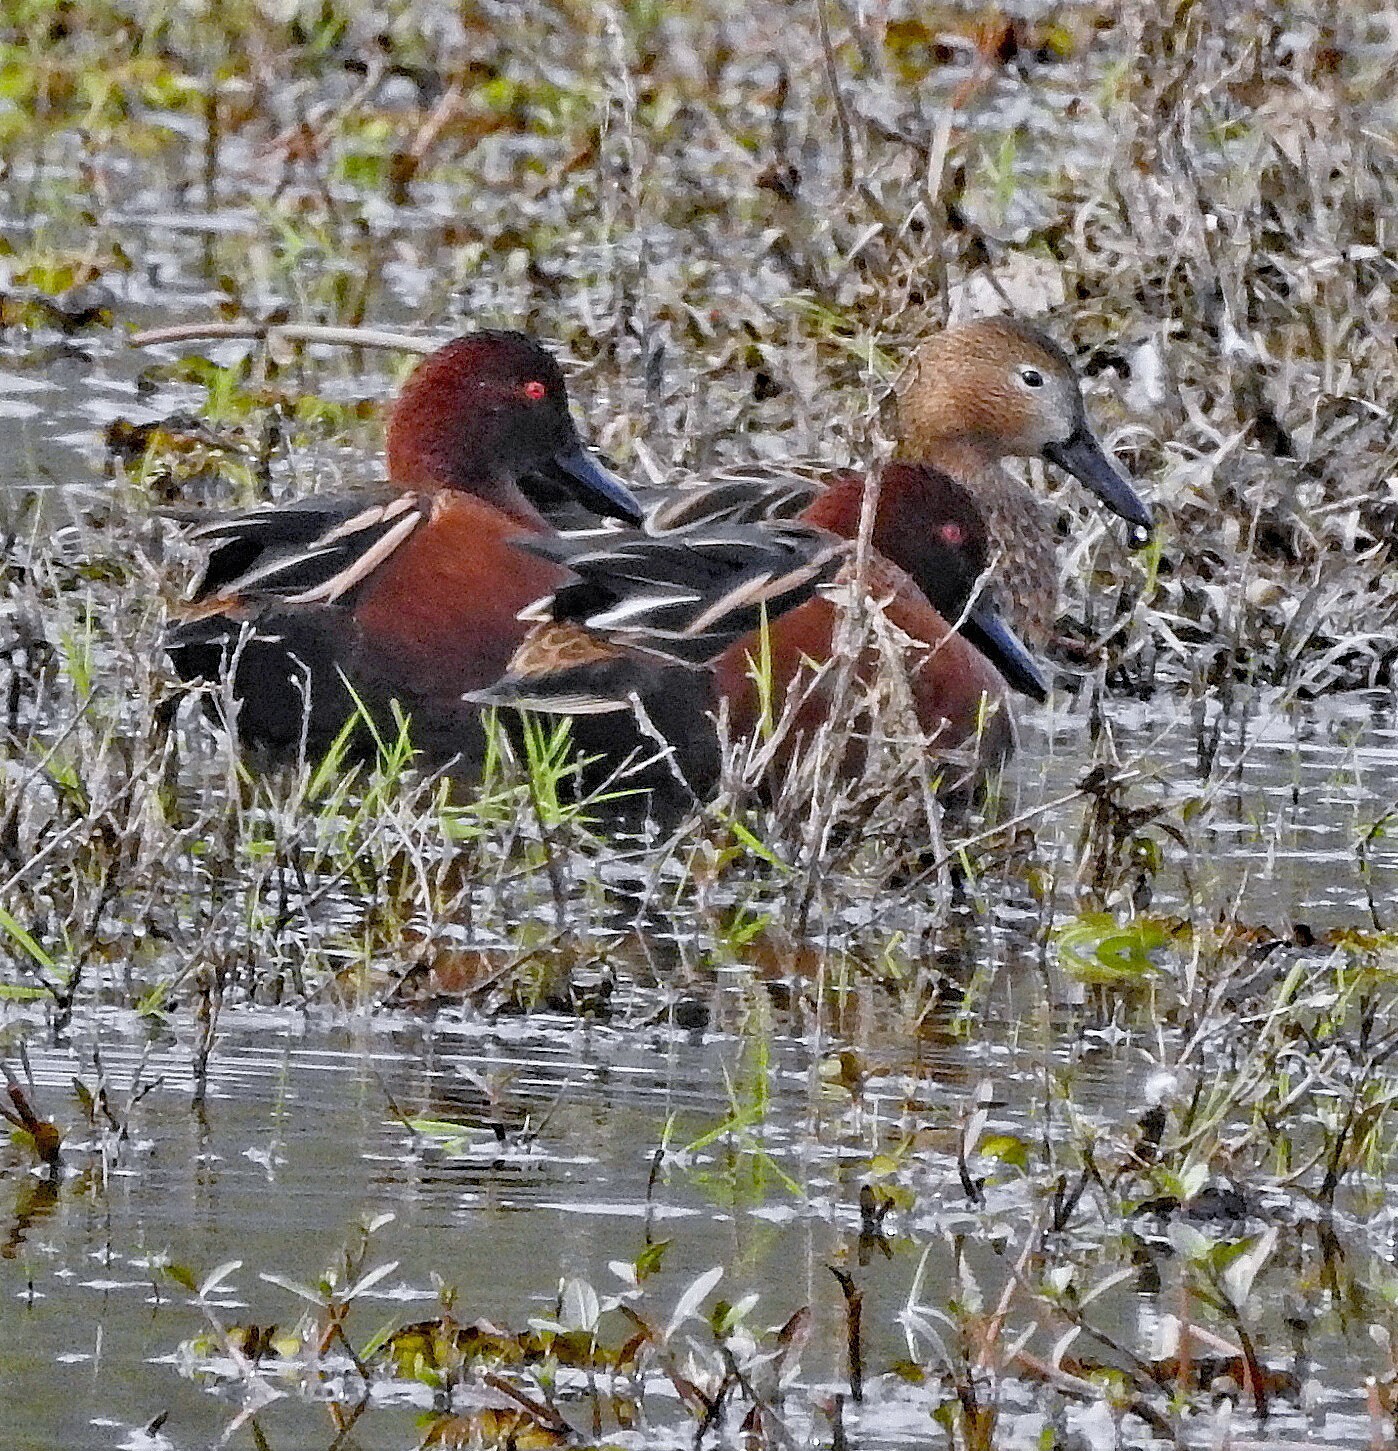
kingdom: Animalia
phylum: Chordata
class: Aves
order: Anseriformes
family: Anatidae
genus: Spatula
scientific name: Spatula cyanoptera
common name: Cinnamon teal
